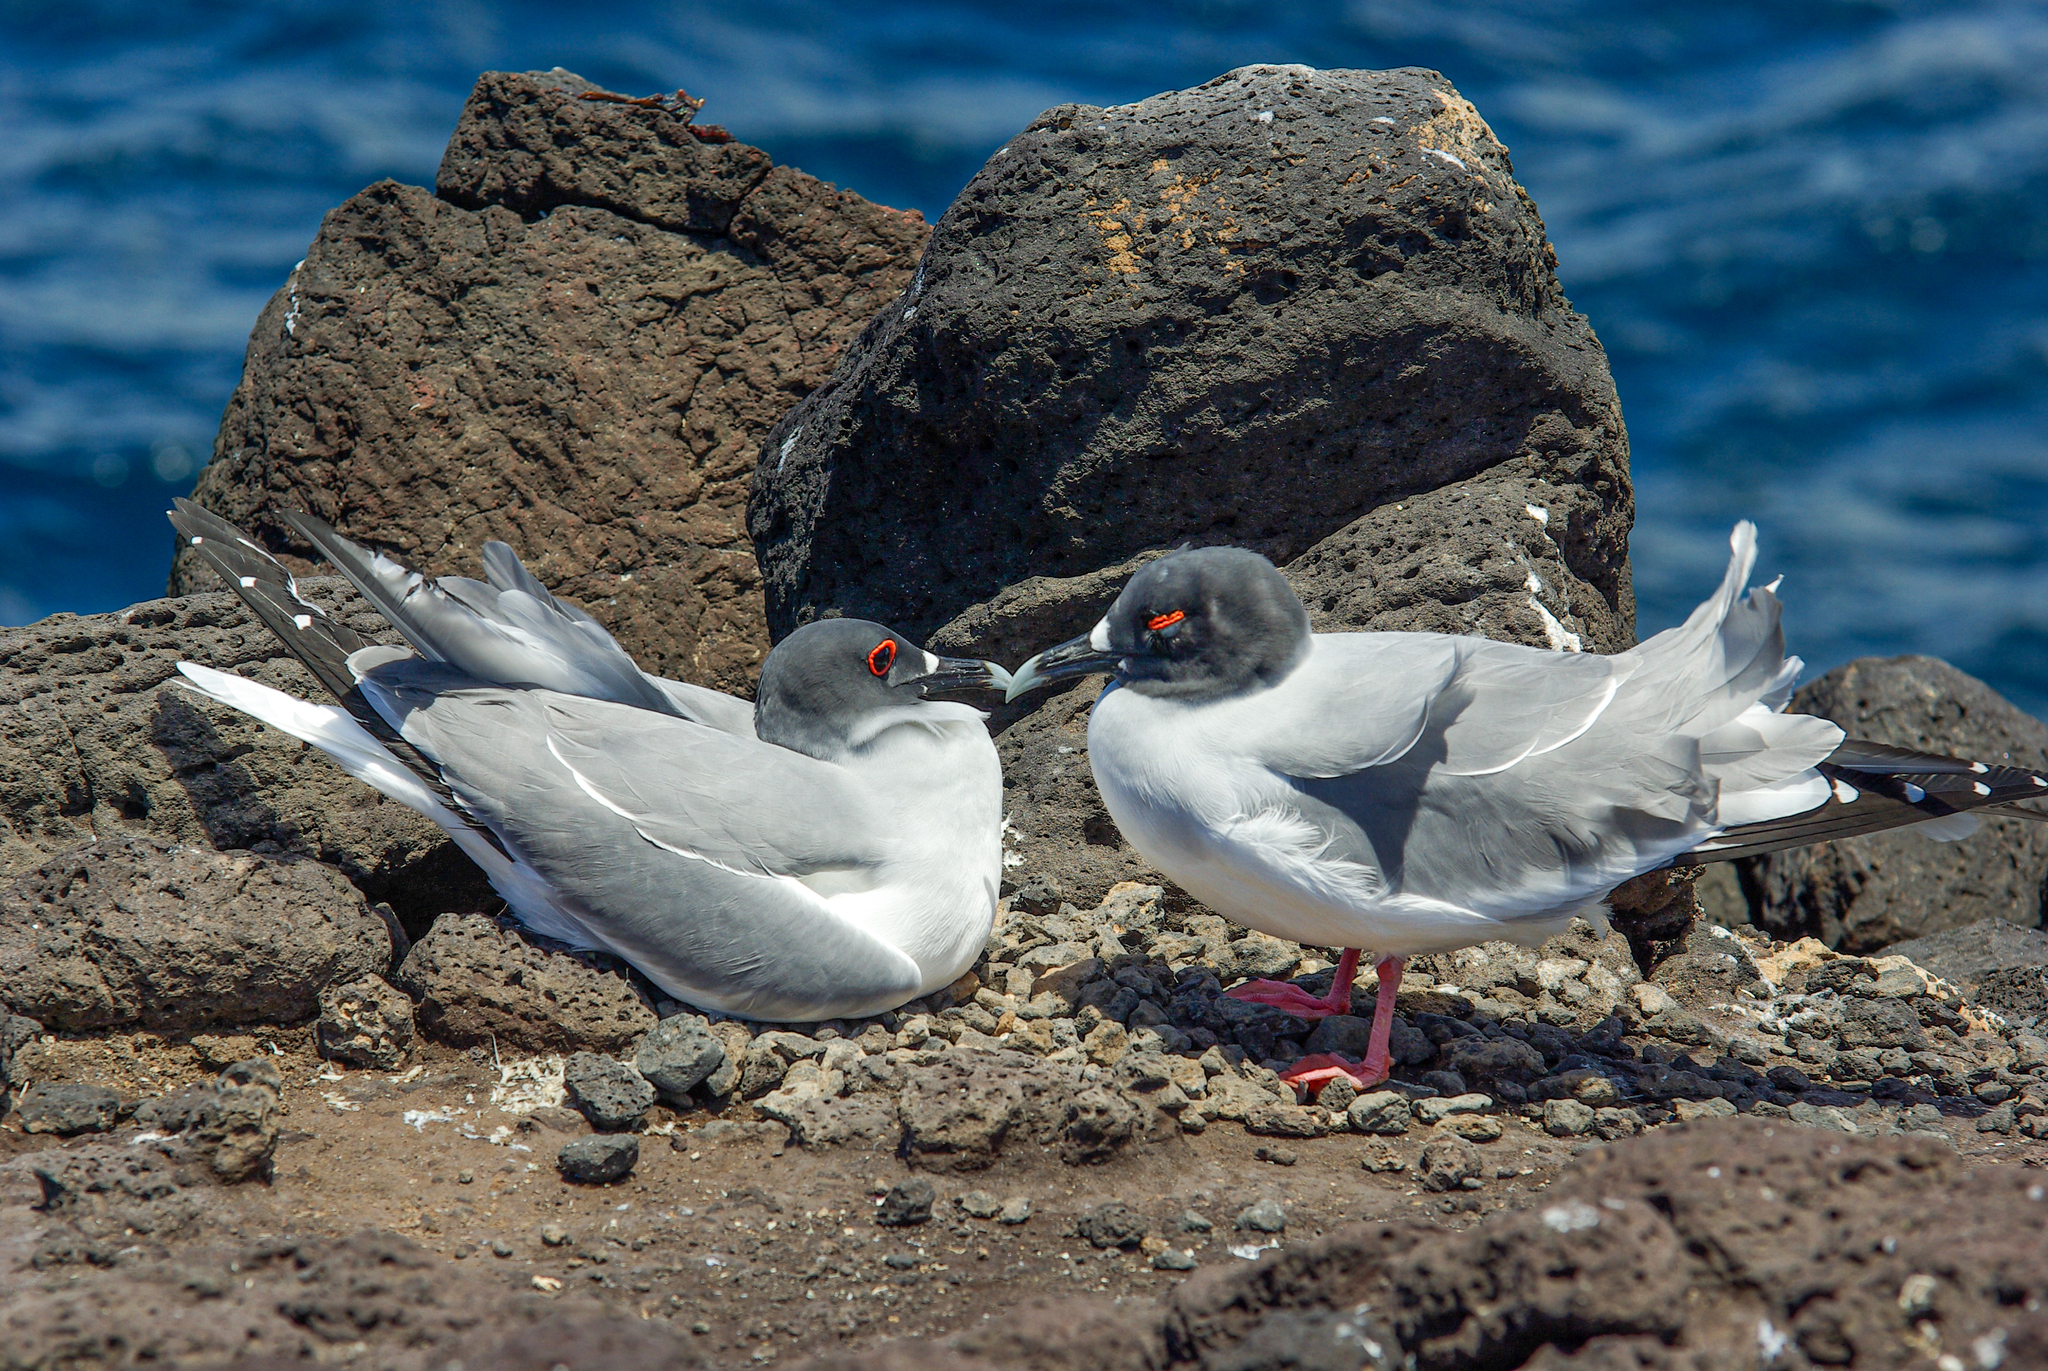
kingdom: Animalia
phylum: Chordata
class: Aves
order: Charadriiformes
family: Laridae
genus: Creagrus
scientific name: Creagrus furcatus
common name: Swallow-tailed gull
